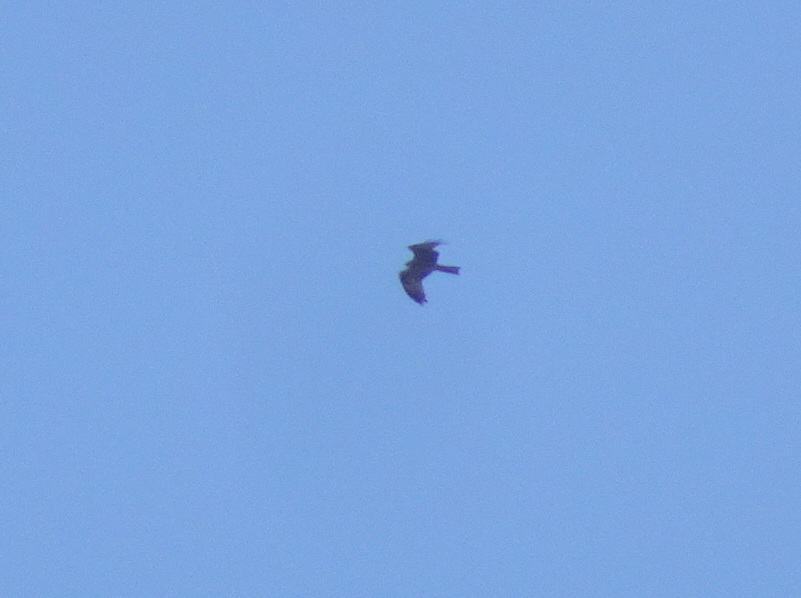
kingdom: Animalia
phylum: Chordata
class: Aves
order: Accipitriformes
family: Accipitridae
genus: Milvus
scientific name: Milvus migrans
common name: Black kite
